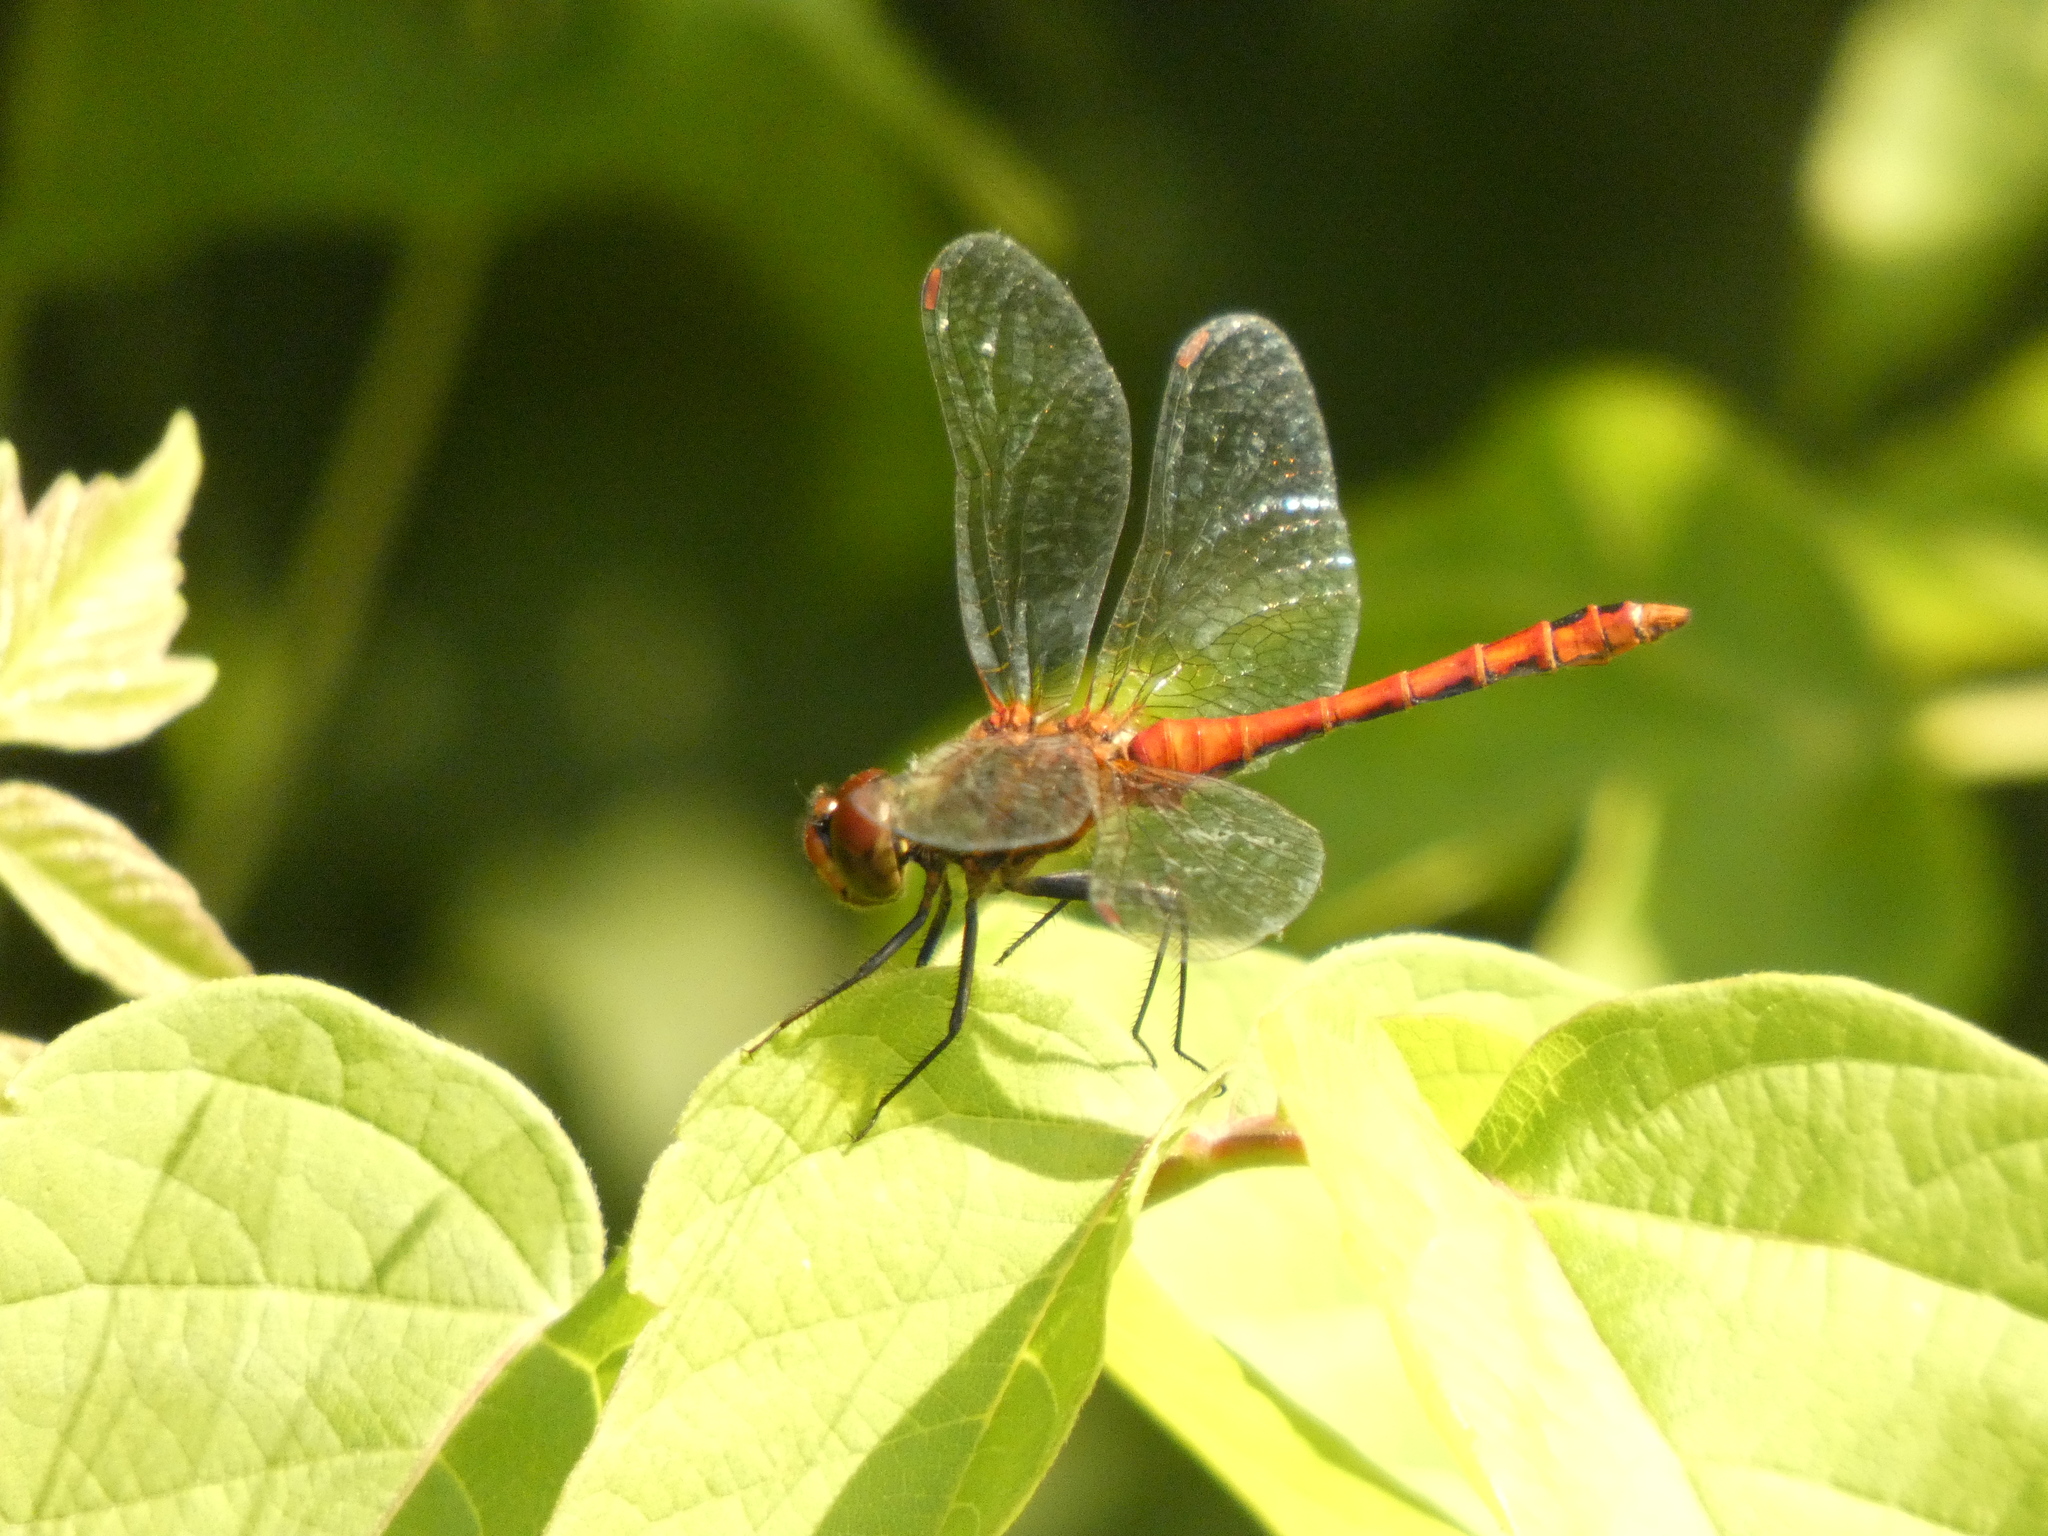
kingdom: Animalia
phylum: Arthropoda
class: Insecta
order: Odonata
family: Libellulidae
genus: Sympetrum
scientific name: Sympetrum sanguineum
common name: Ruddy darter
